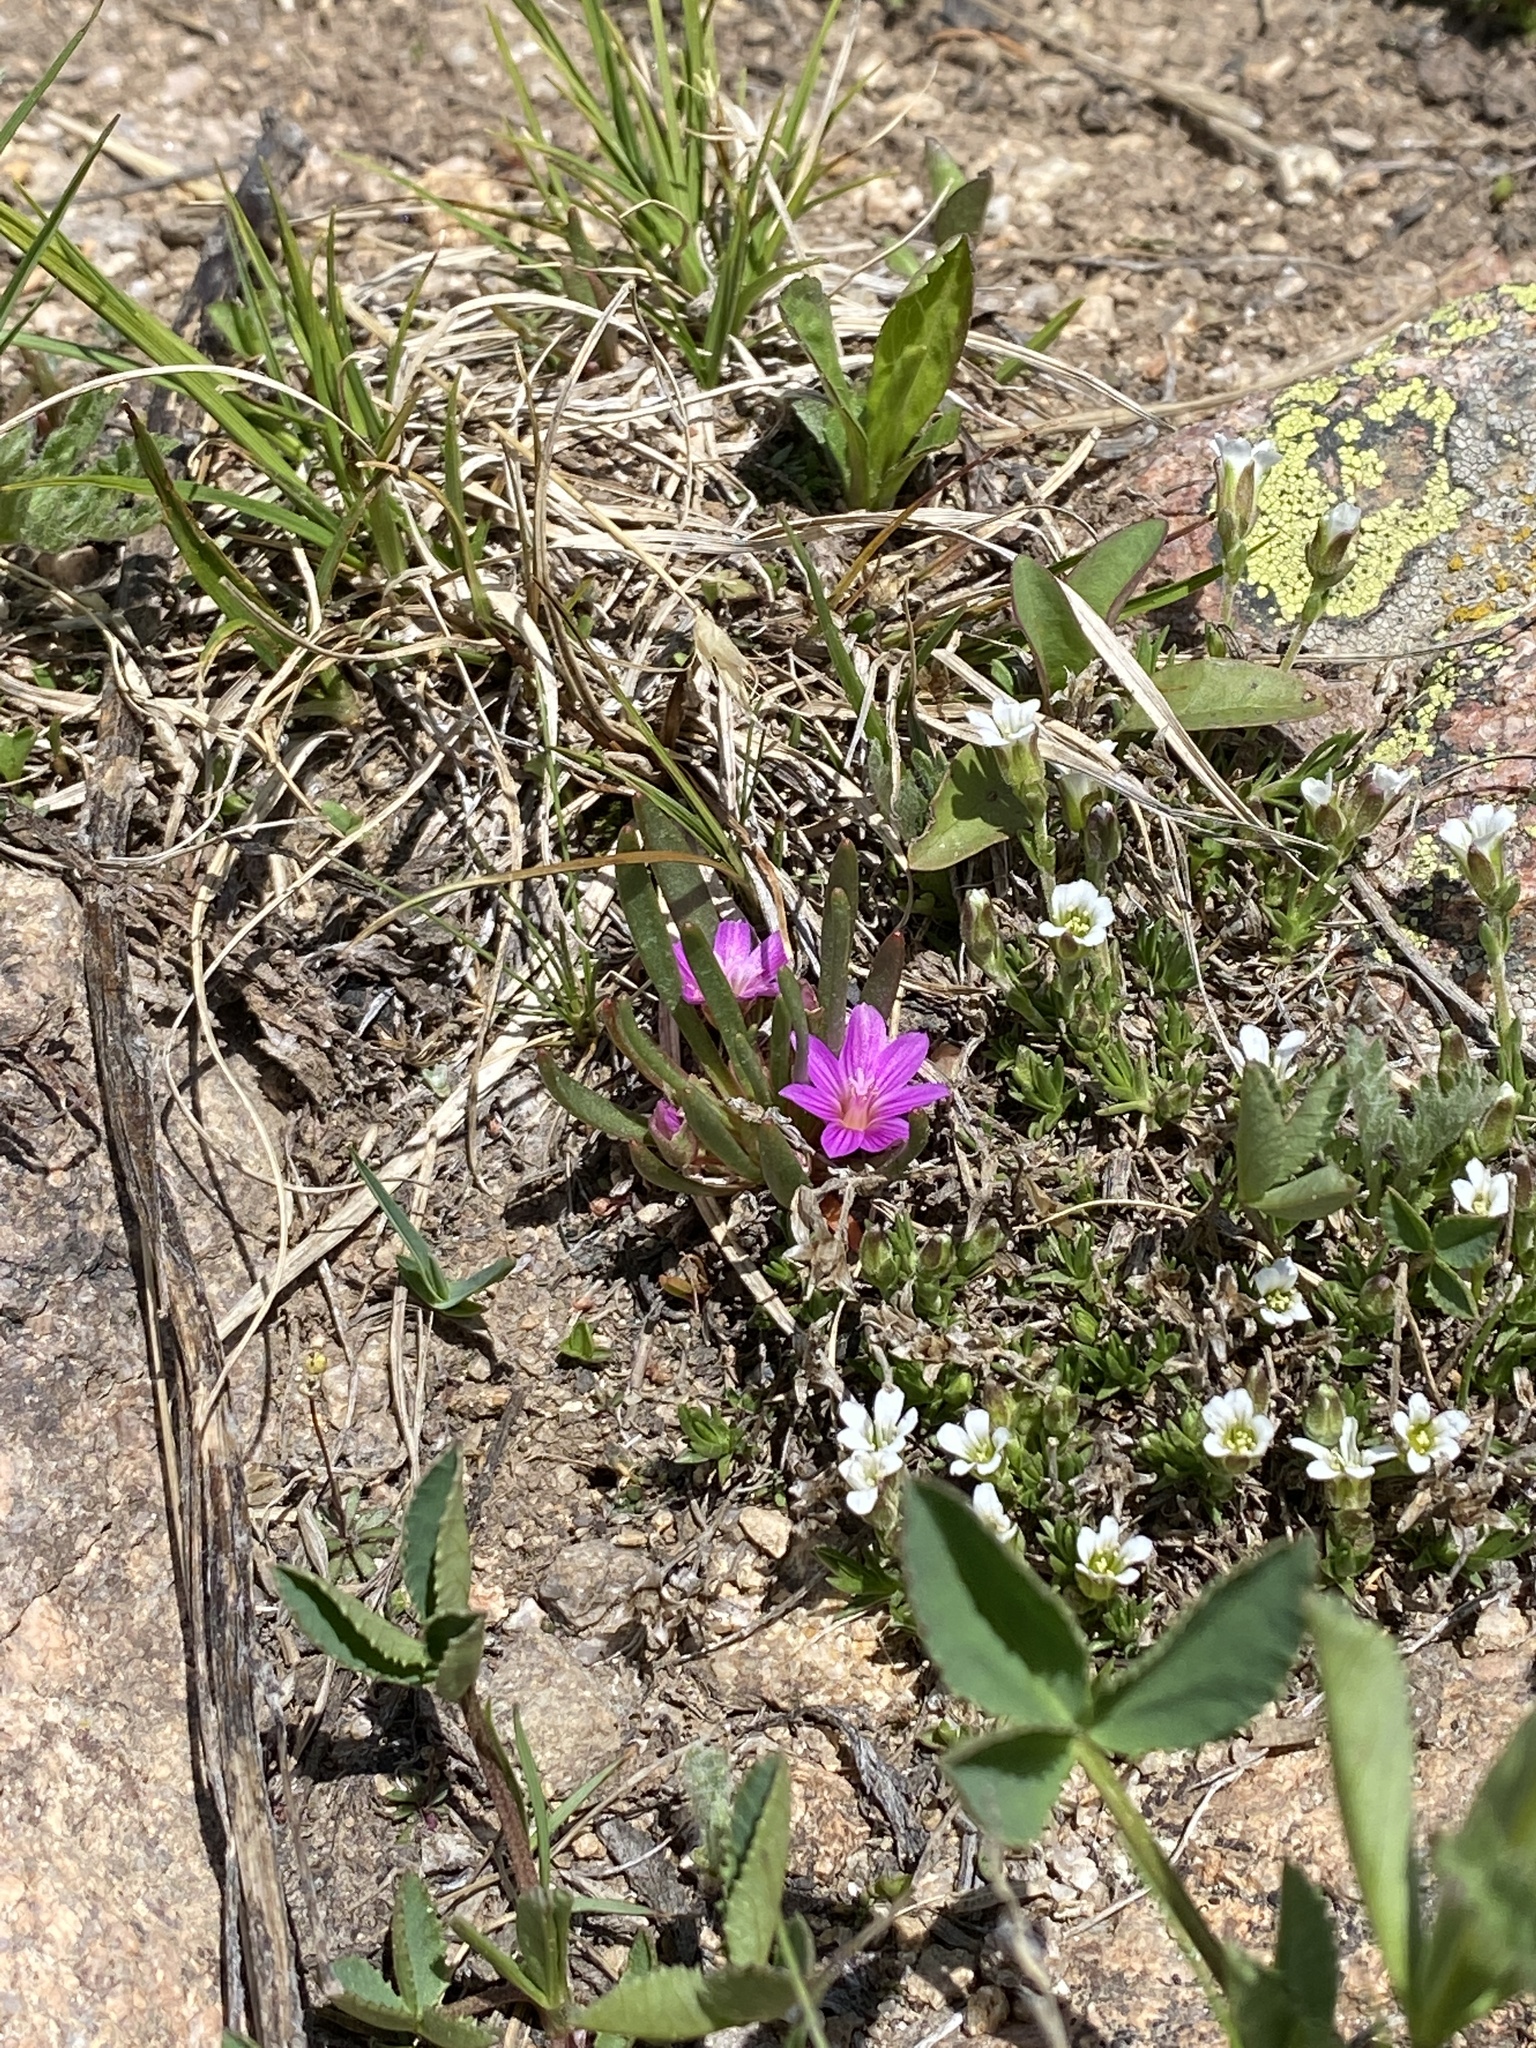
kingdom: Plantae
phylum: Tracheophyta
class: Magnoliopsida
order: Caryophyllales
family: Montiaceae
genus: Lewisia
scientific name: Lewisia pygmaea
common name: Alpine bitterroot
